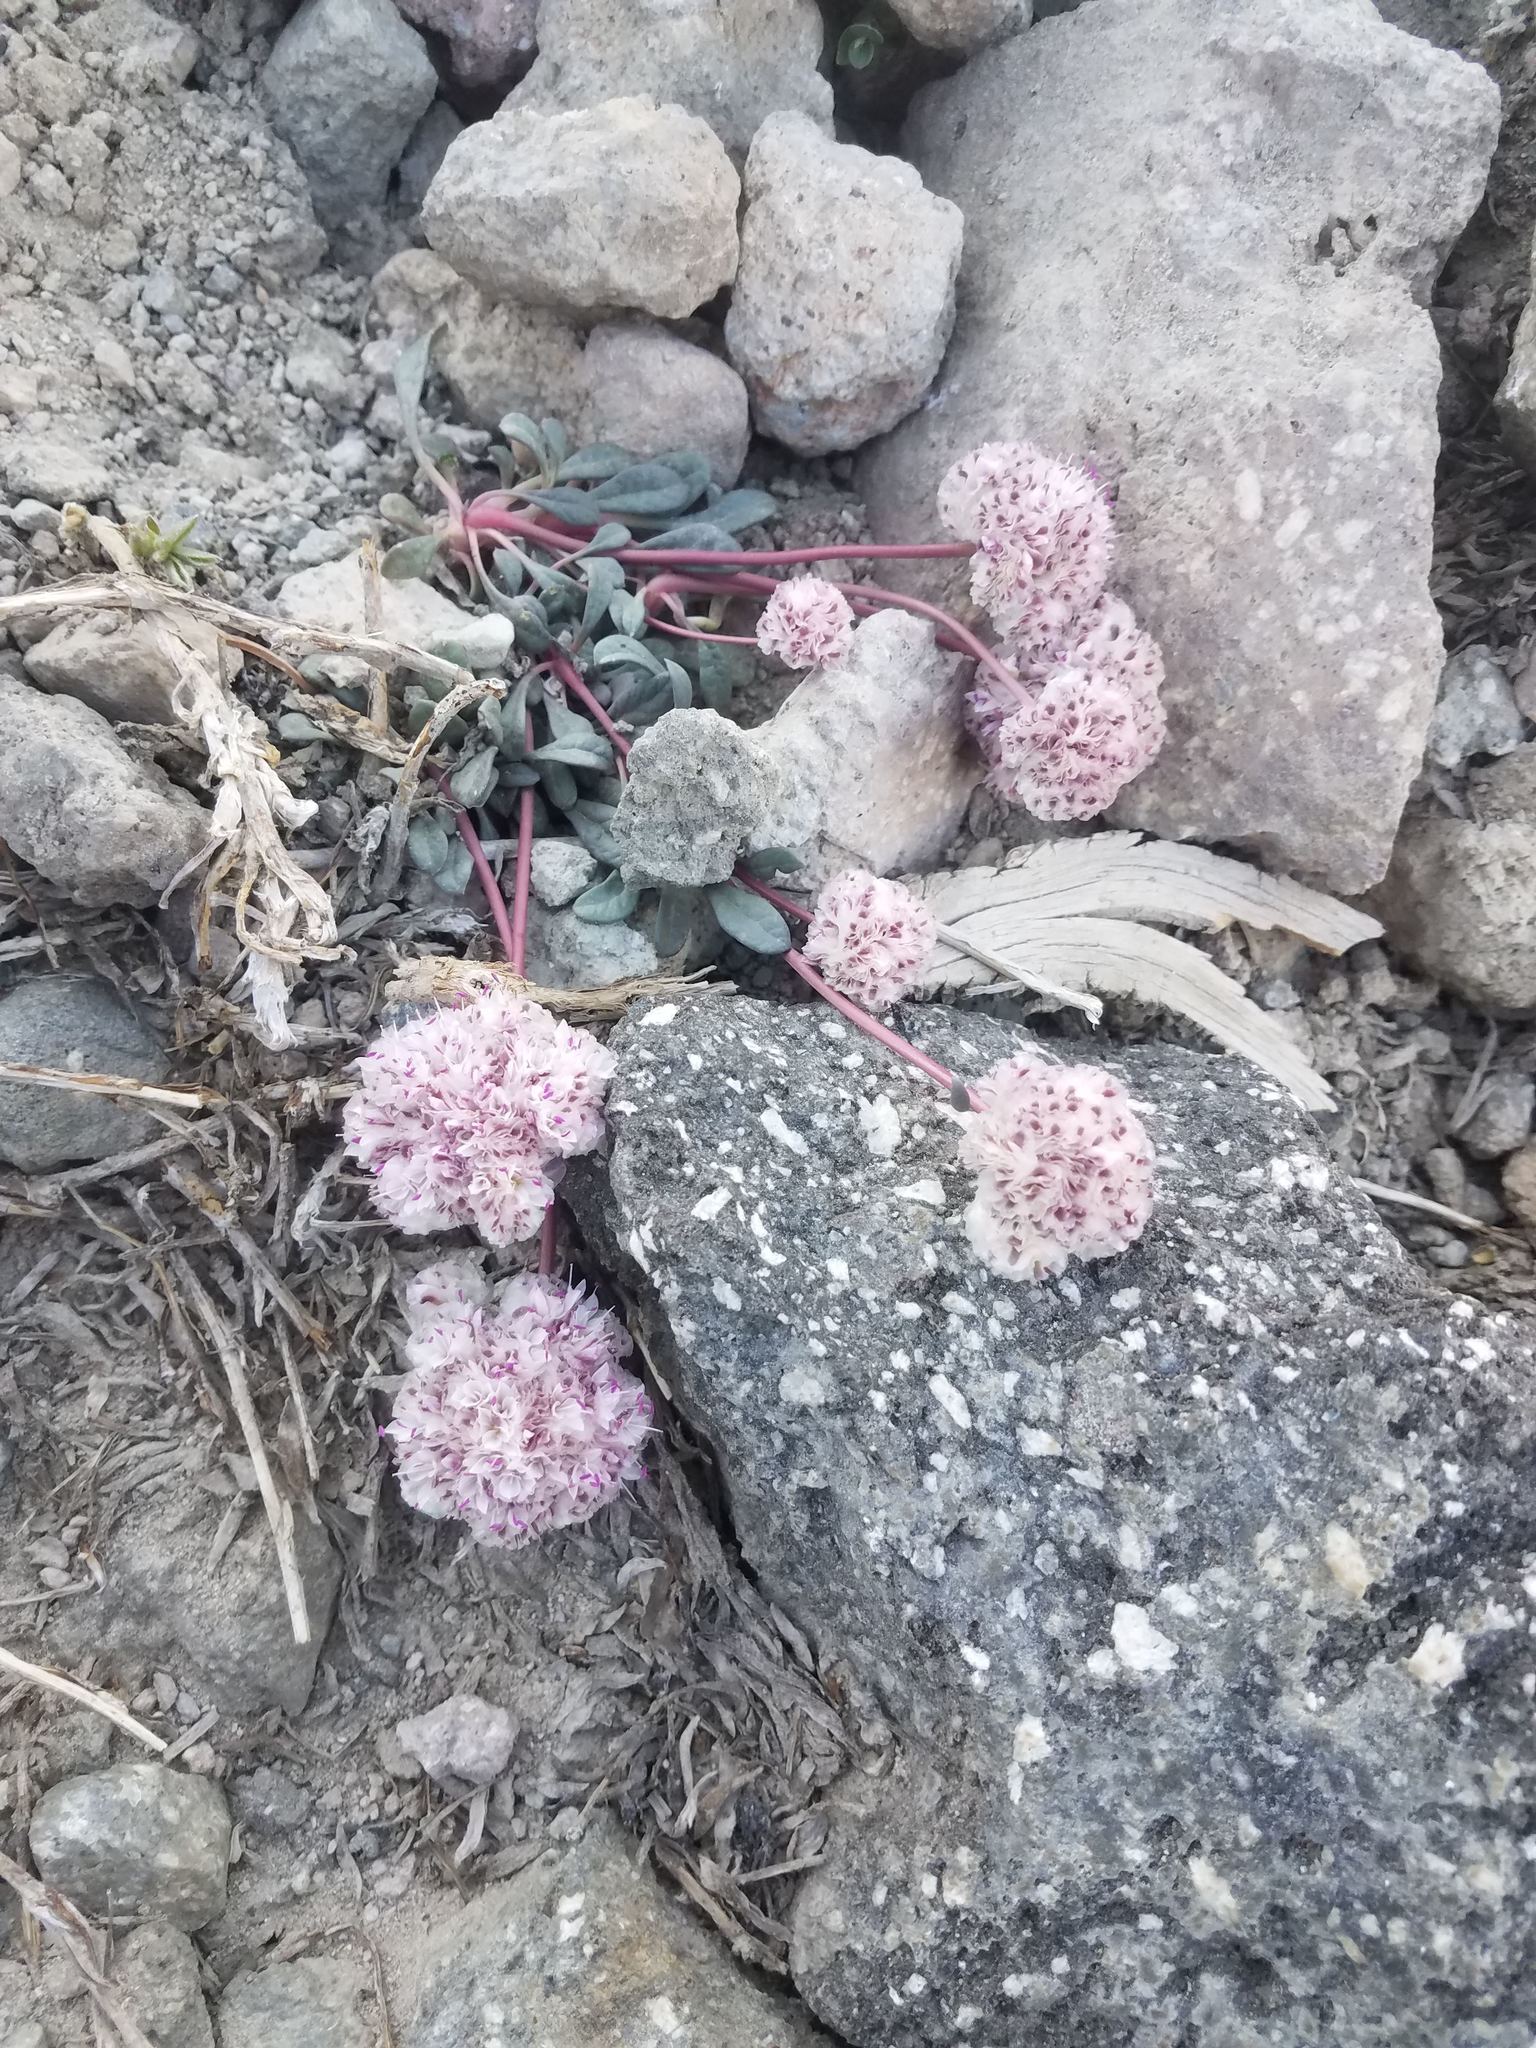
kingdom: Plantae
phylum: Tracheophyta
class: Magnoliopsida
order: Caryophyllales
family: Montiaceae
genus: Calyptridium
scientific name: Calyptridium umbellatum
